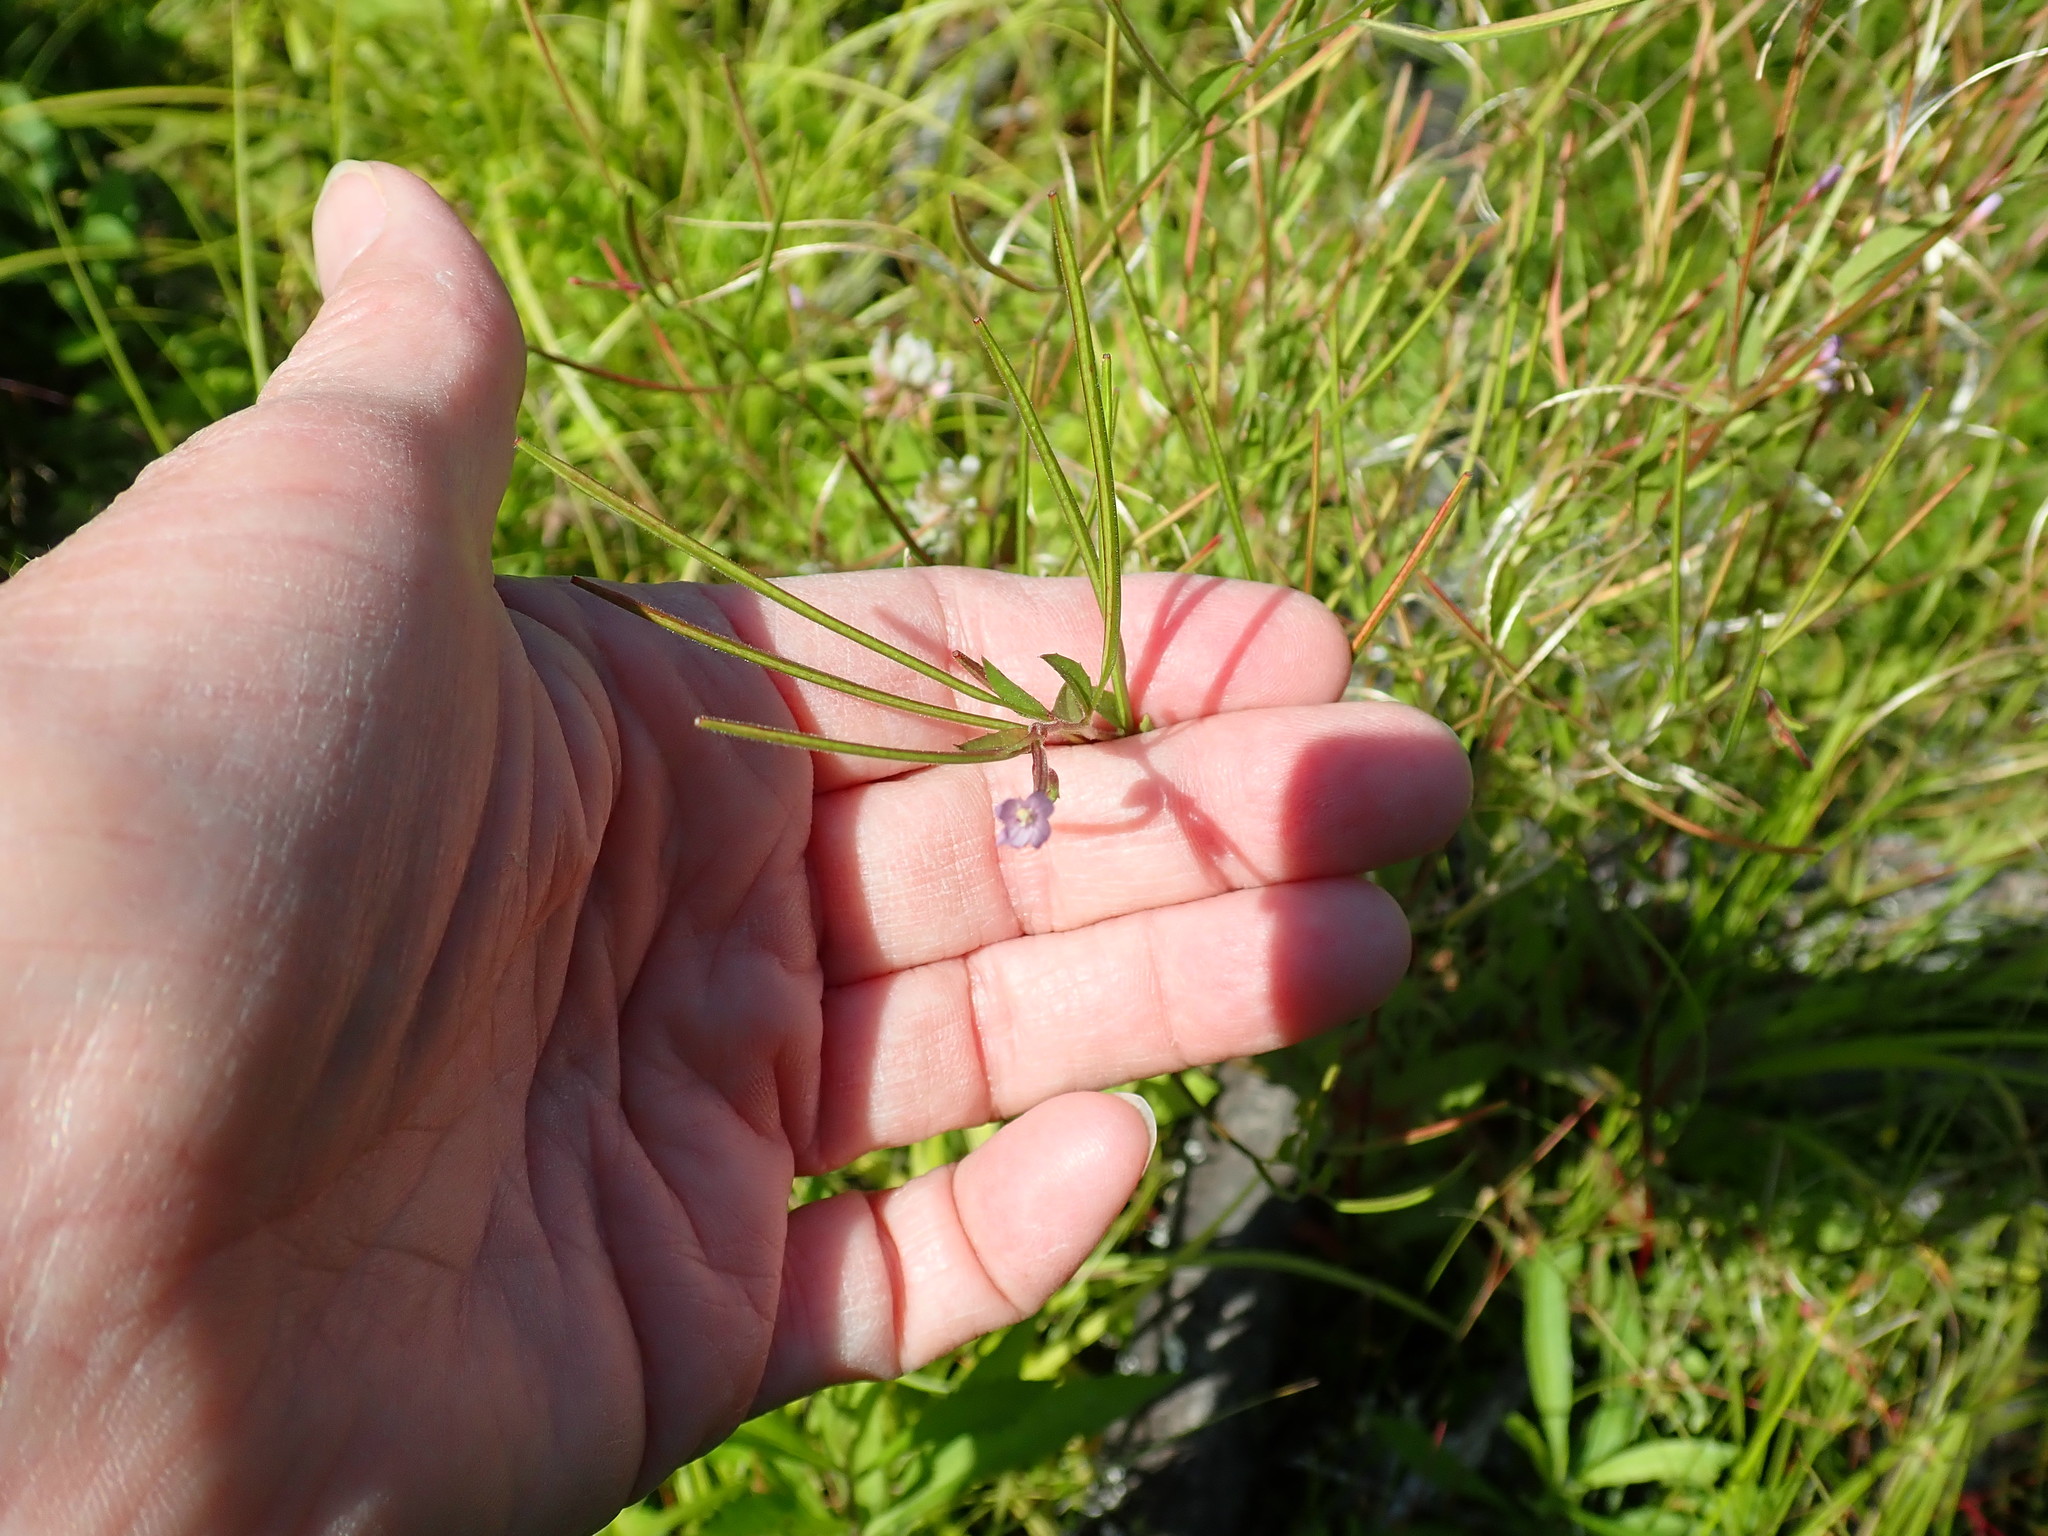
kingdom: Plantae
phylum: Tracheophyta
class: Magnoliopsida
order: Myrtales
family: Onagraceae
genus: Epilobium
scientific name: Epilobium
